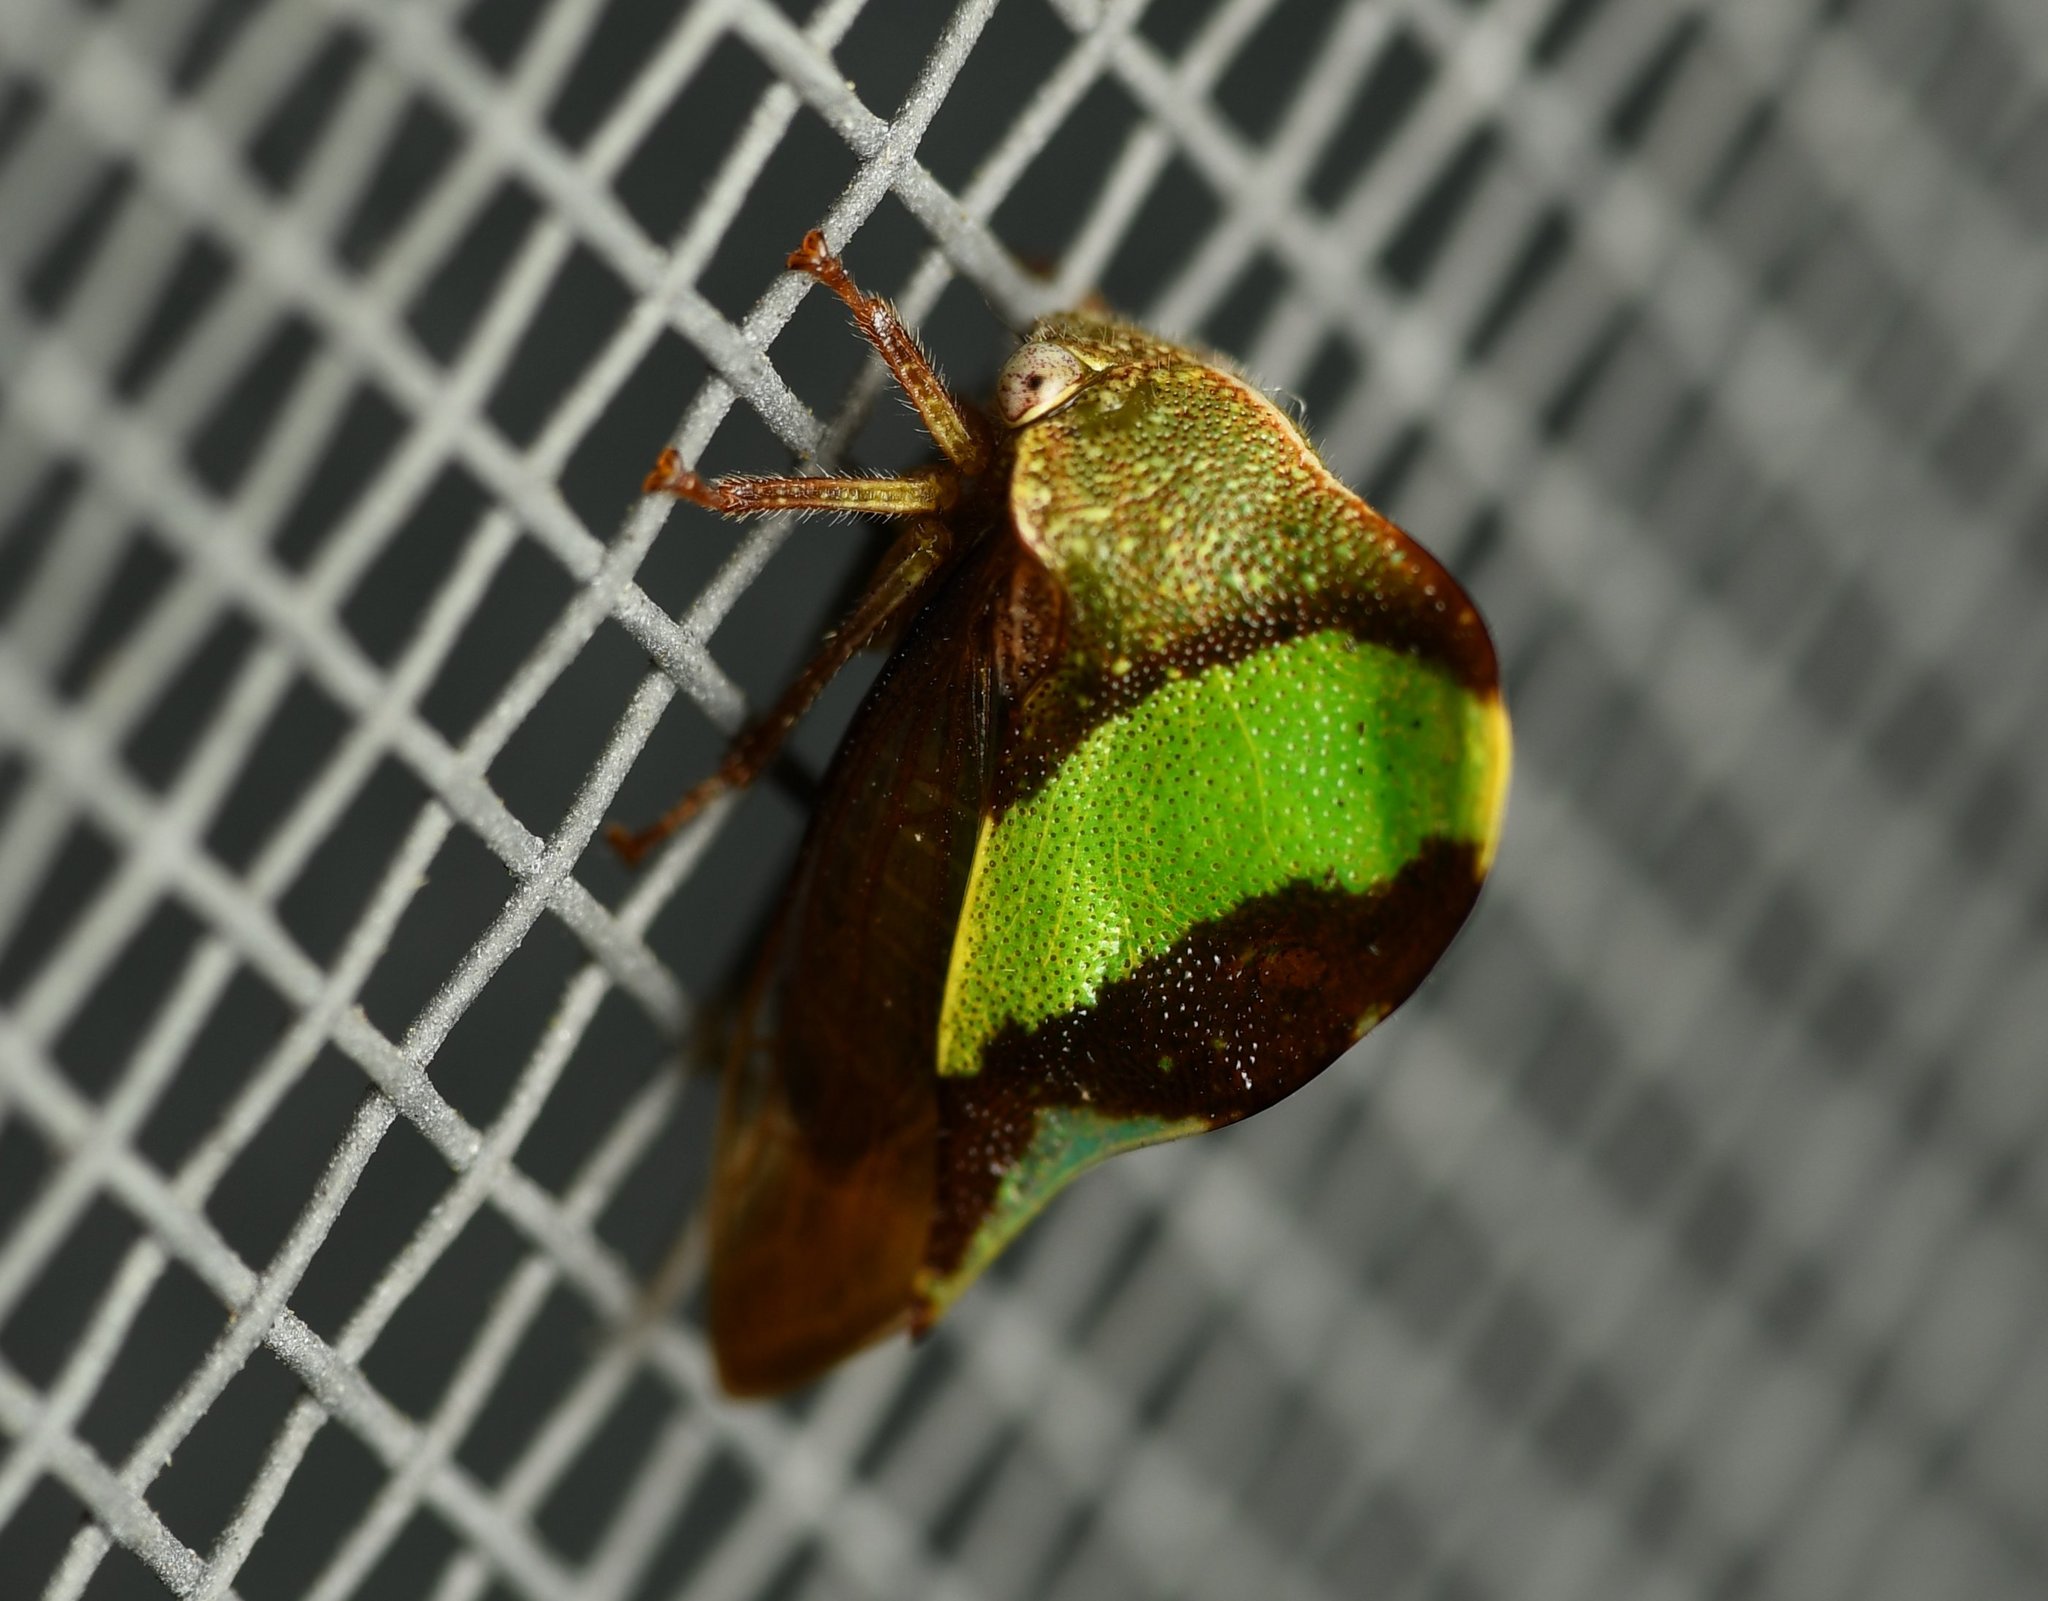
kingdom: Animalia
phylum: Arthropoda
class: Insecta
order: Hemiptera
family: Membracidae
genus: Smilia
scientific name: Smilia fasciata
